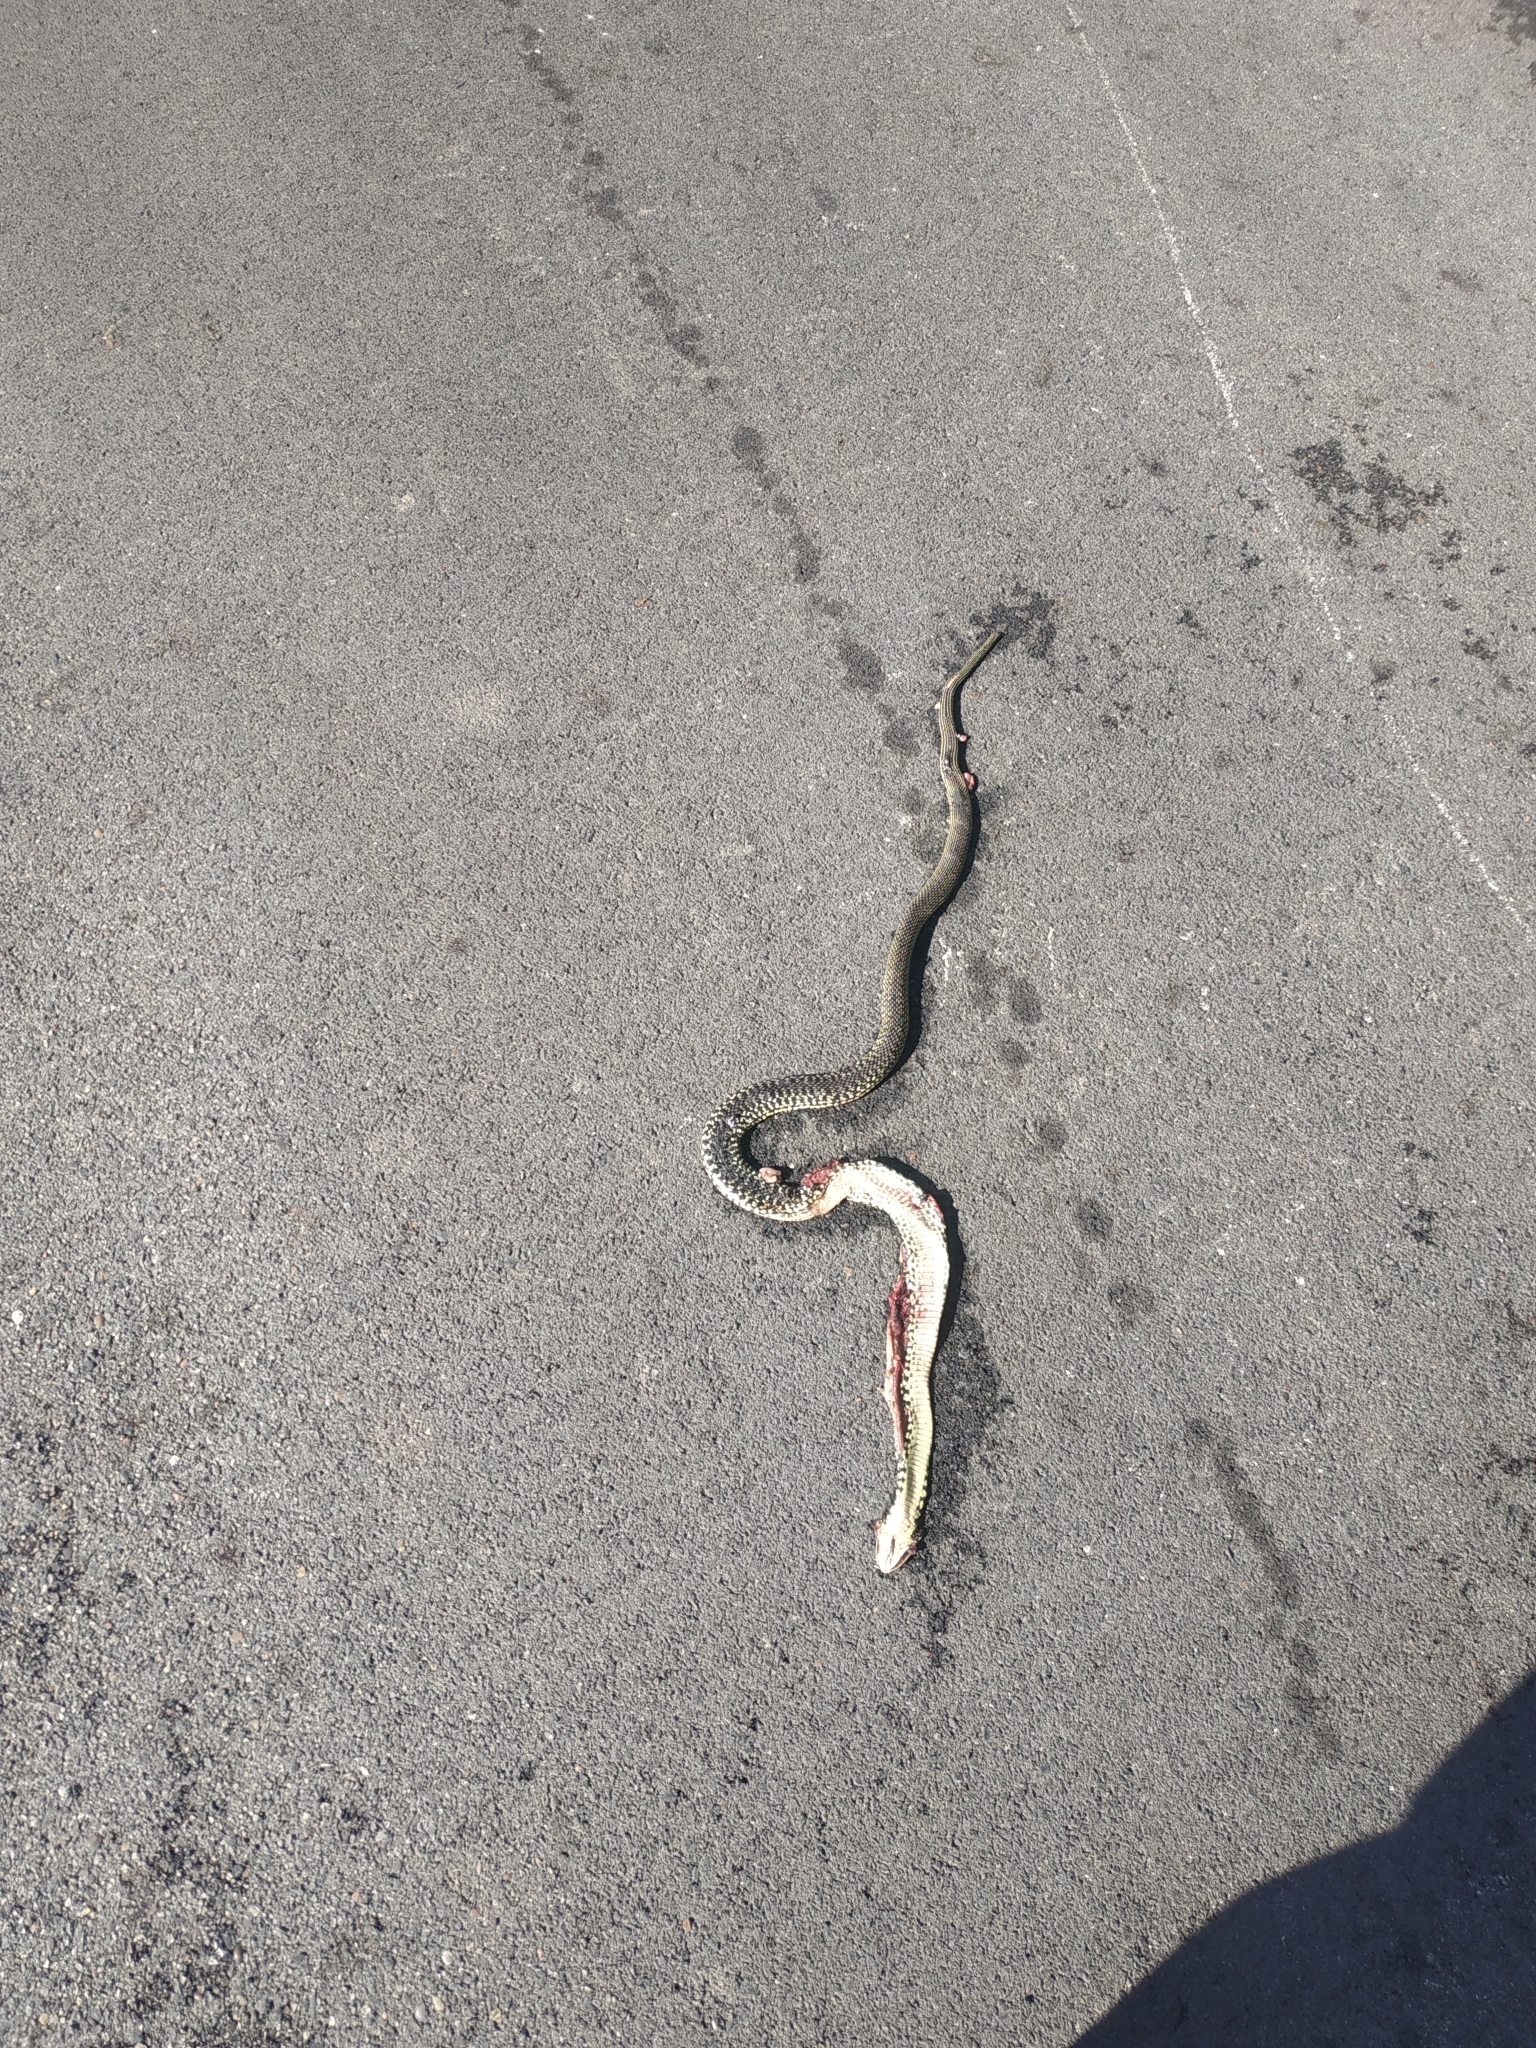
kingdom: Animalia
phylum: Chordata
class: Squamata
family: Colubridae
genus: Hierophis
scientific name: Hierophis viridiflavus
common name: Green whip snake
